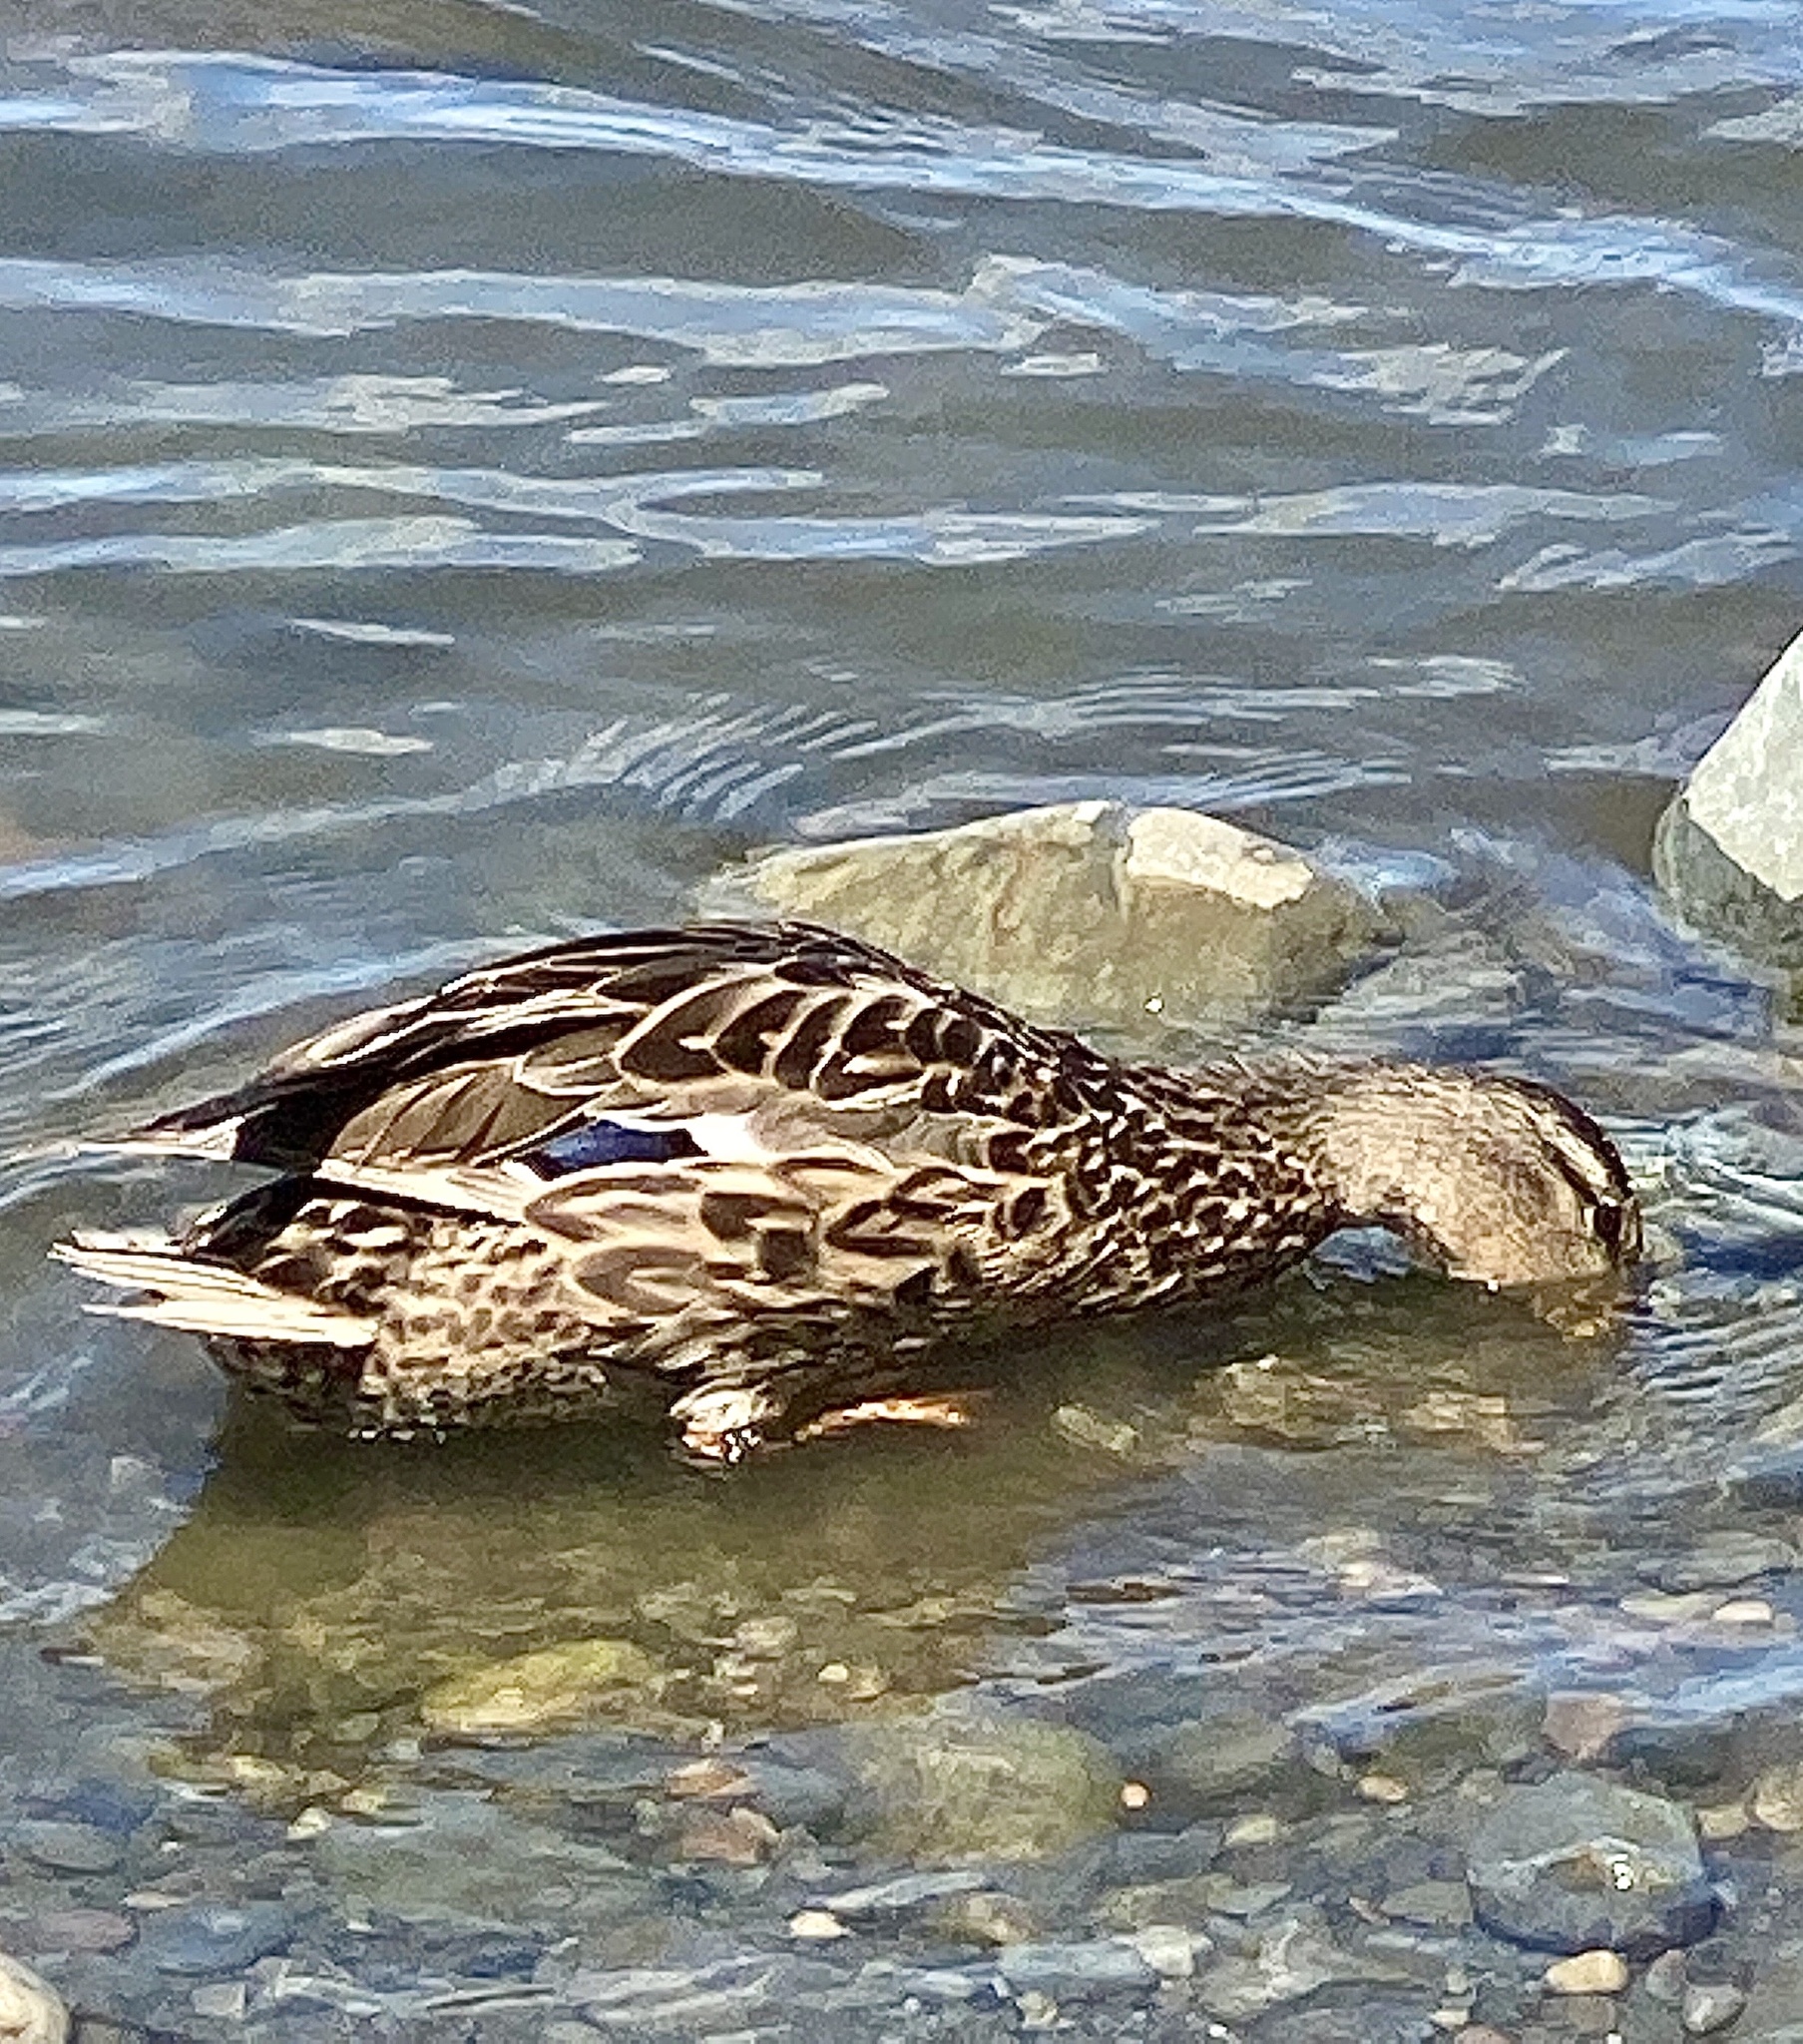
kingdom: Animalia
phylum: Chordata
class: Aves
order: Anseriformes
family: Anatidae
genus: Anas
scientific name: Anas platyrhynchos
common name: Mallard
